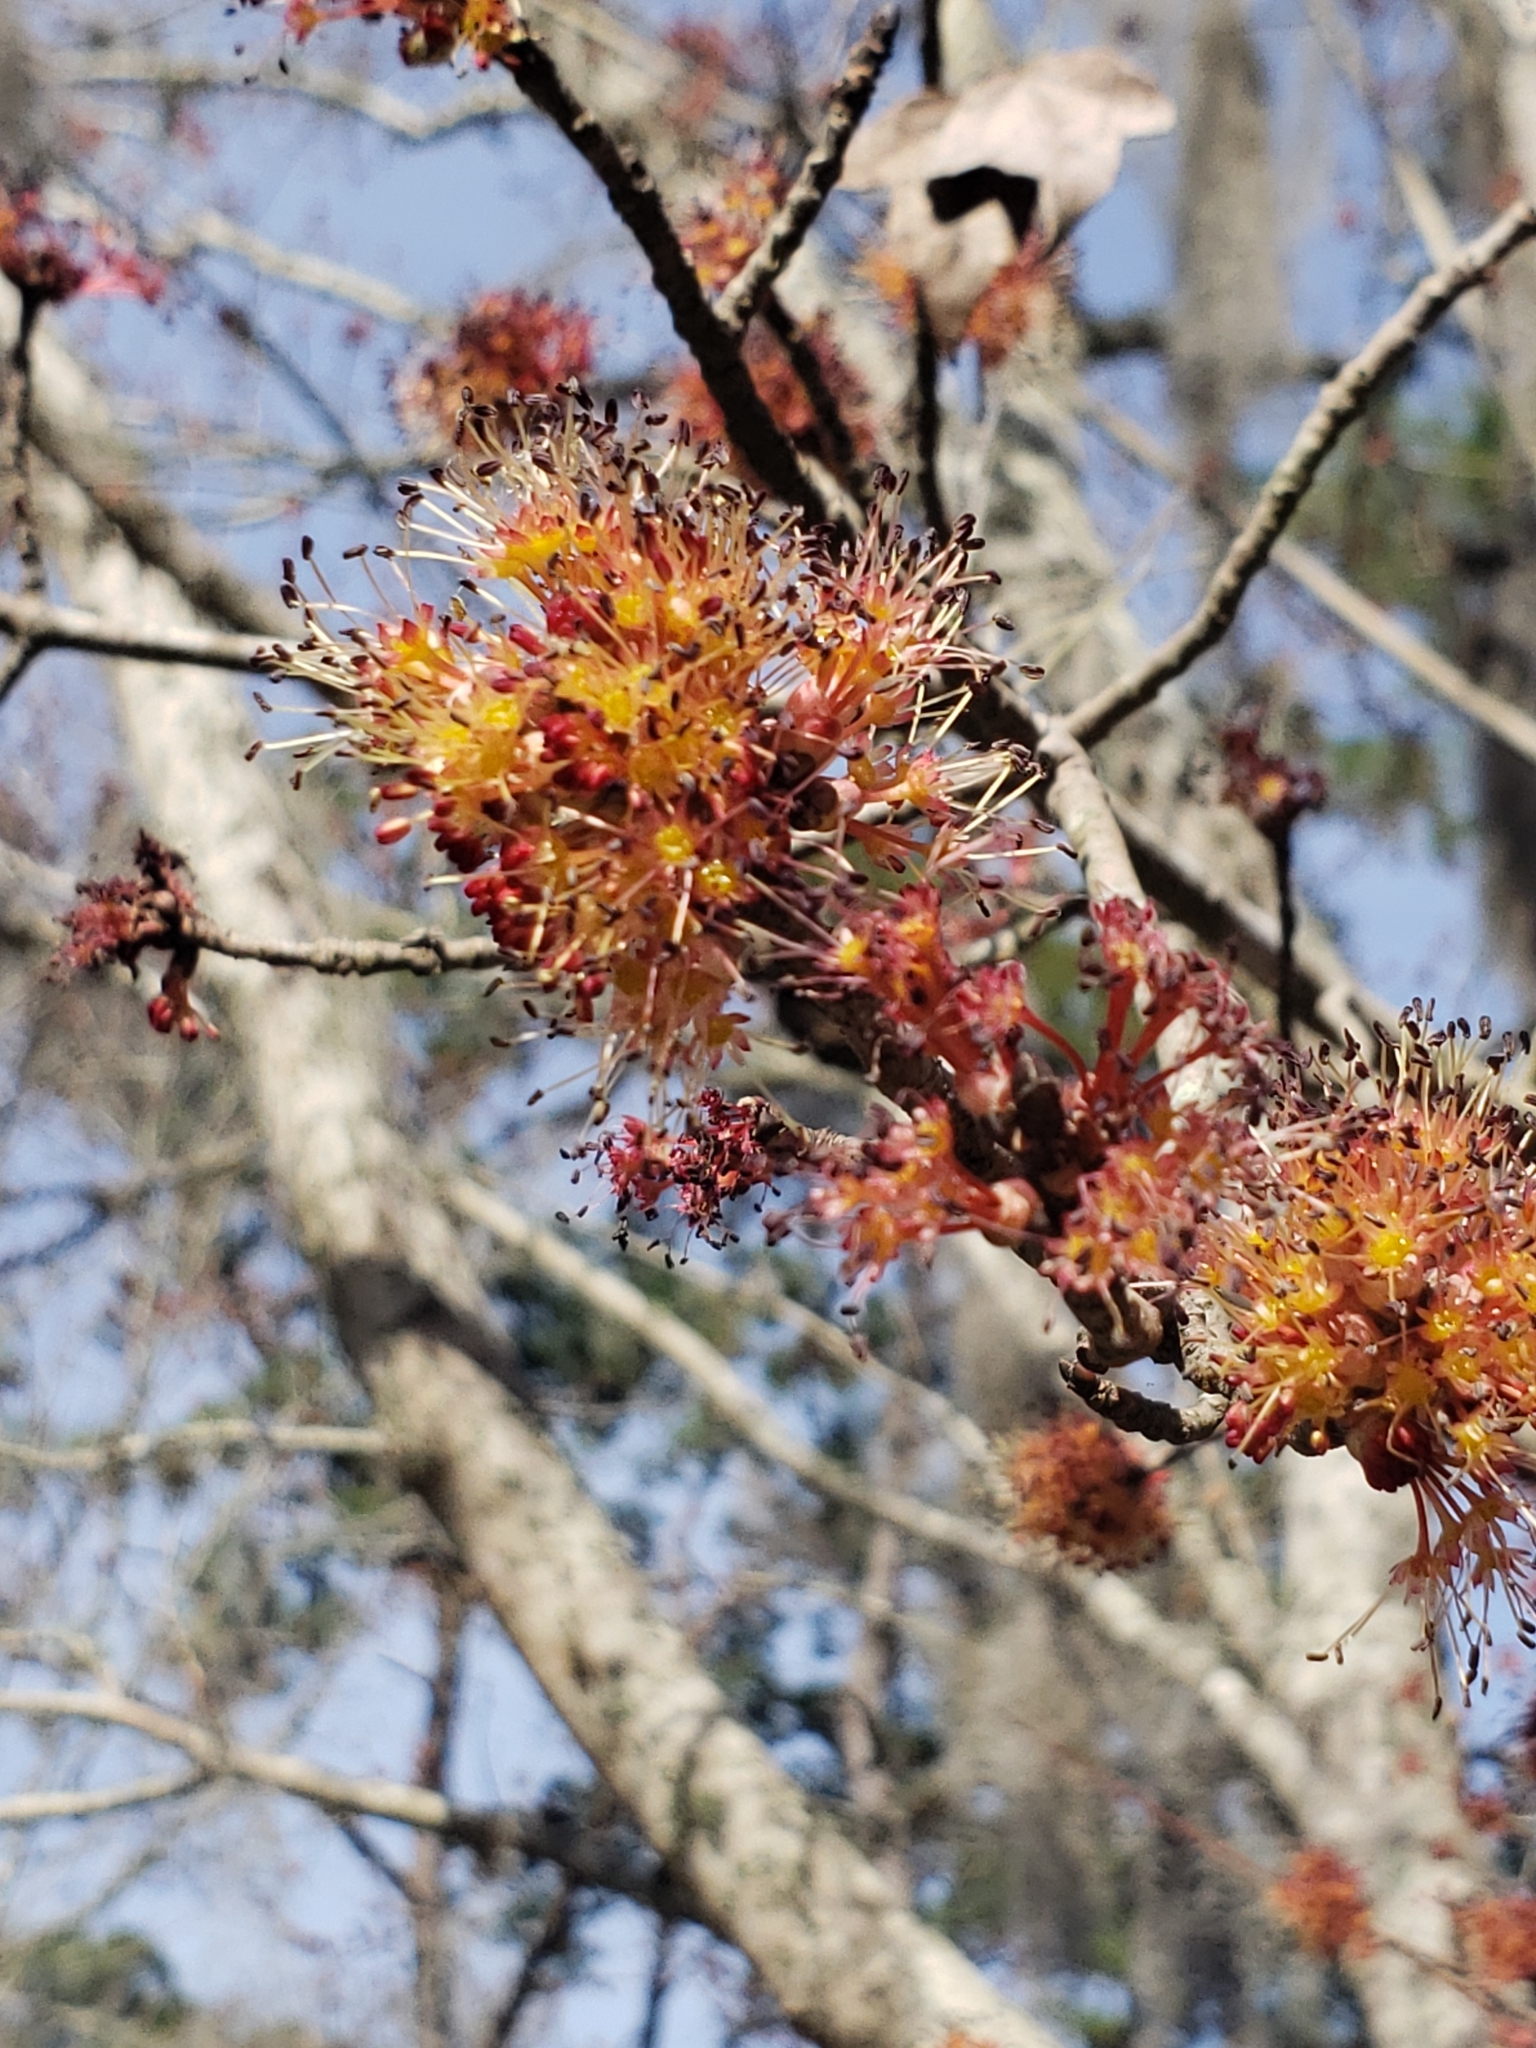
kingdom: Plantae
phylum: Tracheophyta
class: Magnoliopsida
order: Sapindales
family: Sapindaceae
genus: Acer
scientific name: Acer rubrum
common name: Red maple
